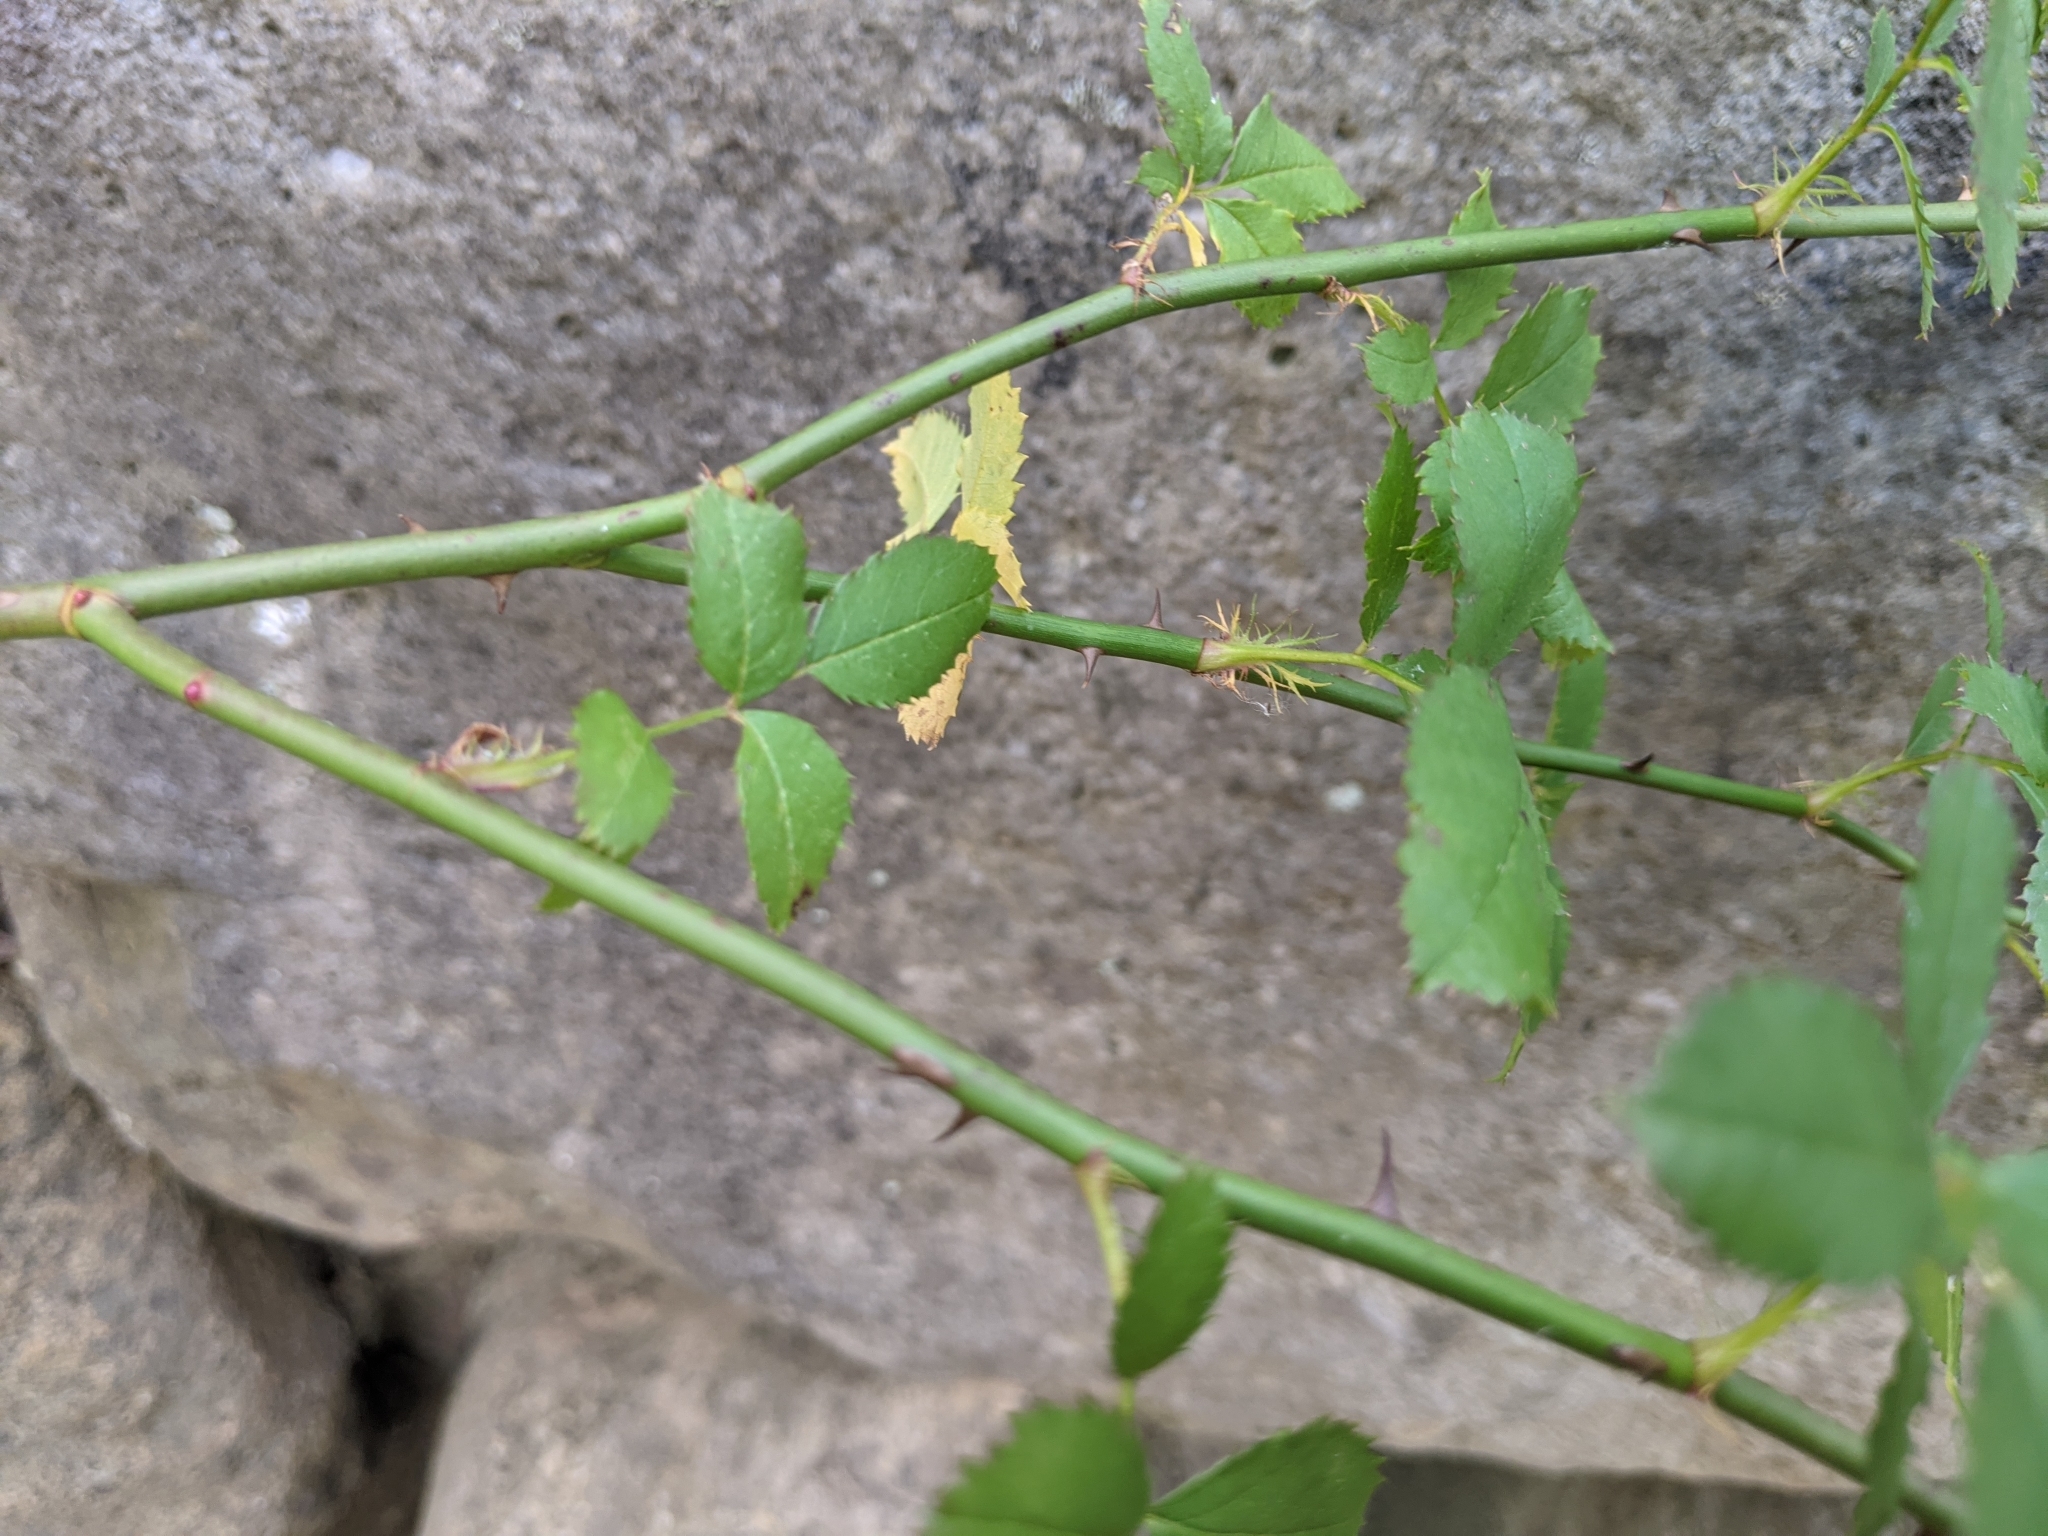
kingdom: Plantae
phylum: Tracheophyta
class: Magnoliopsida
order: Rosales
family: Rosaceae
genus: Rosa
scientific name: Rosa multiflora
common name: Multiflora rose
